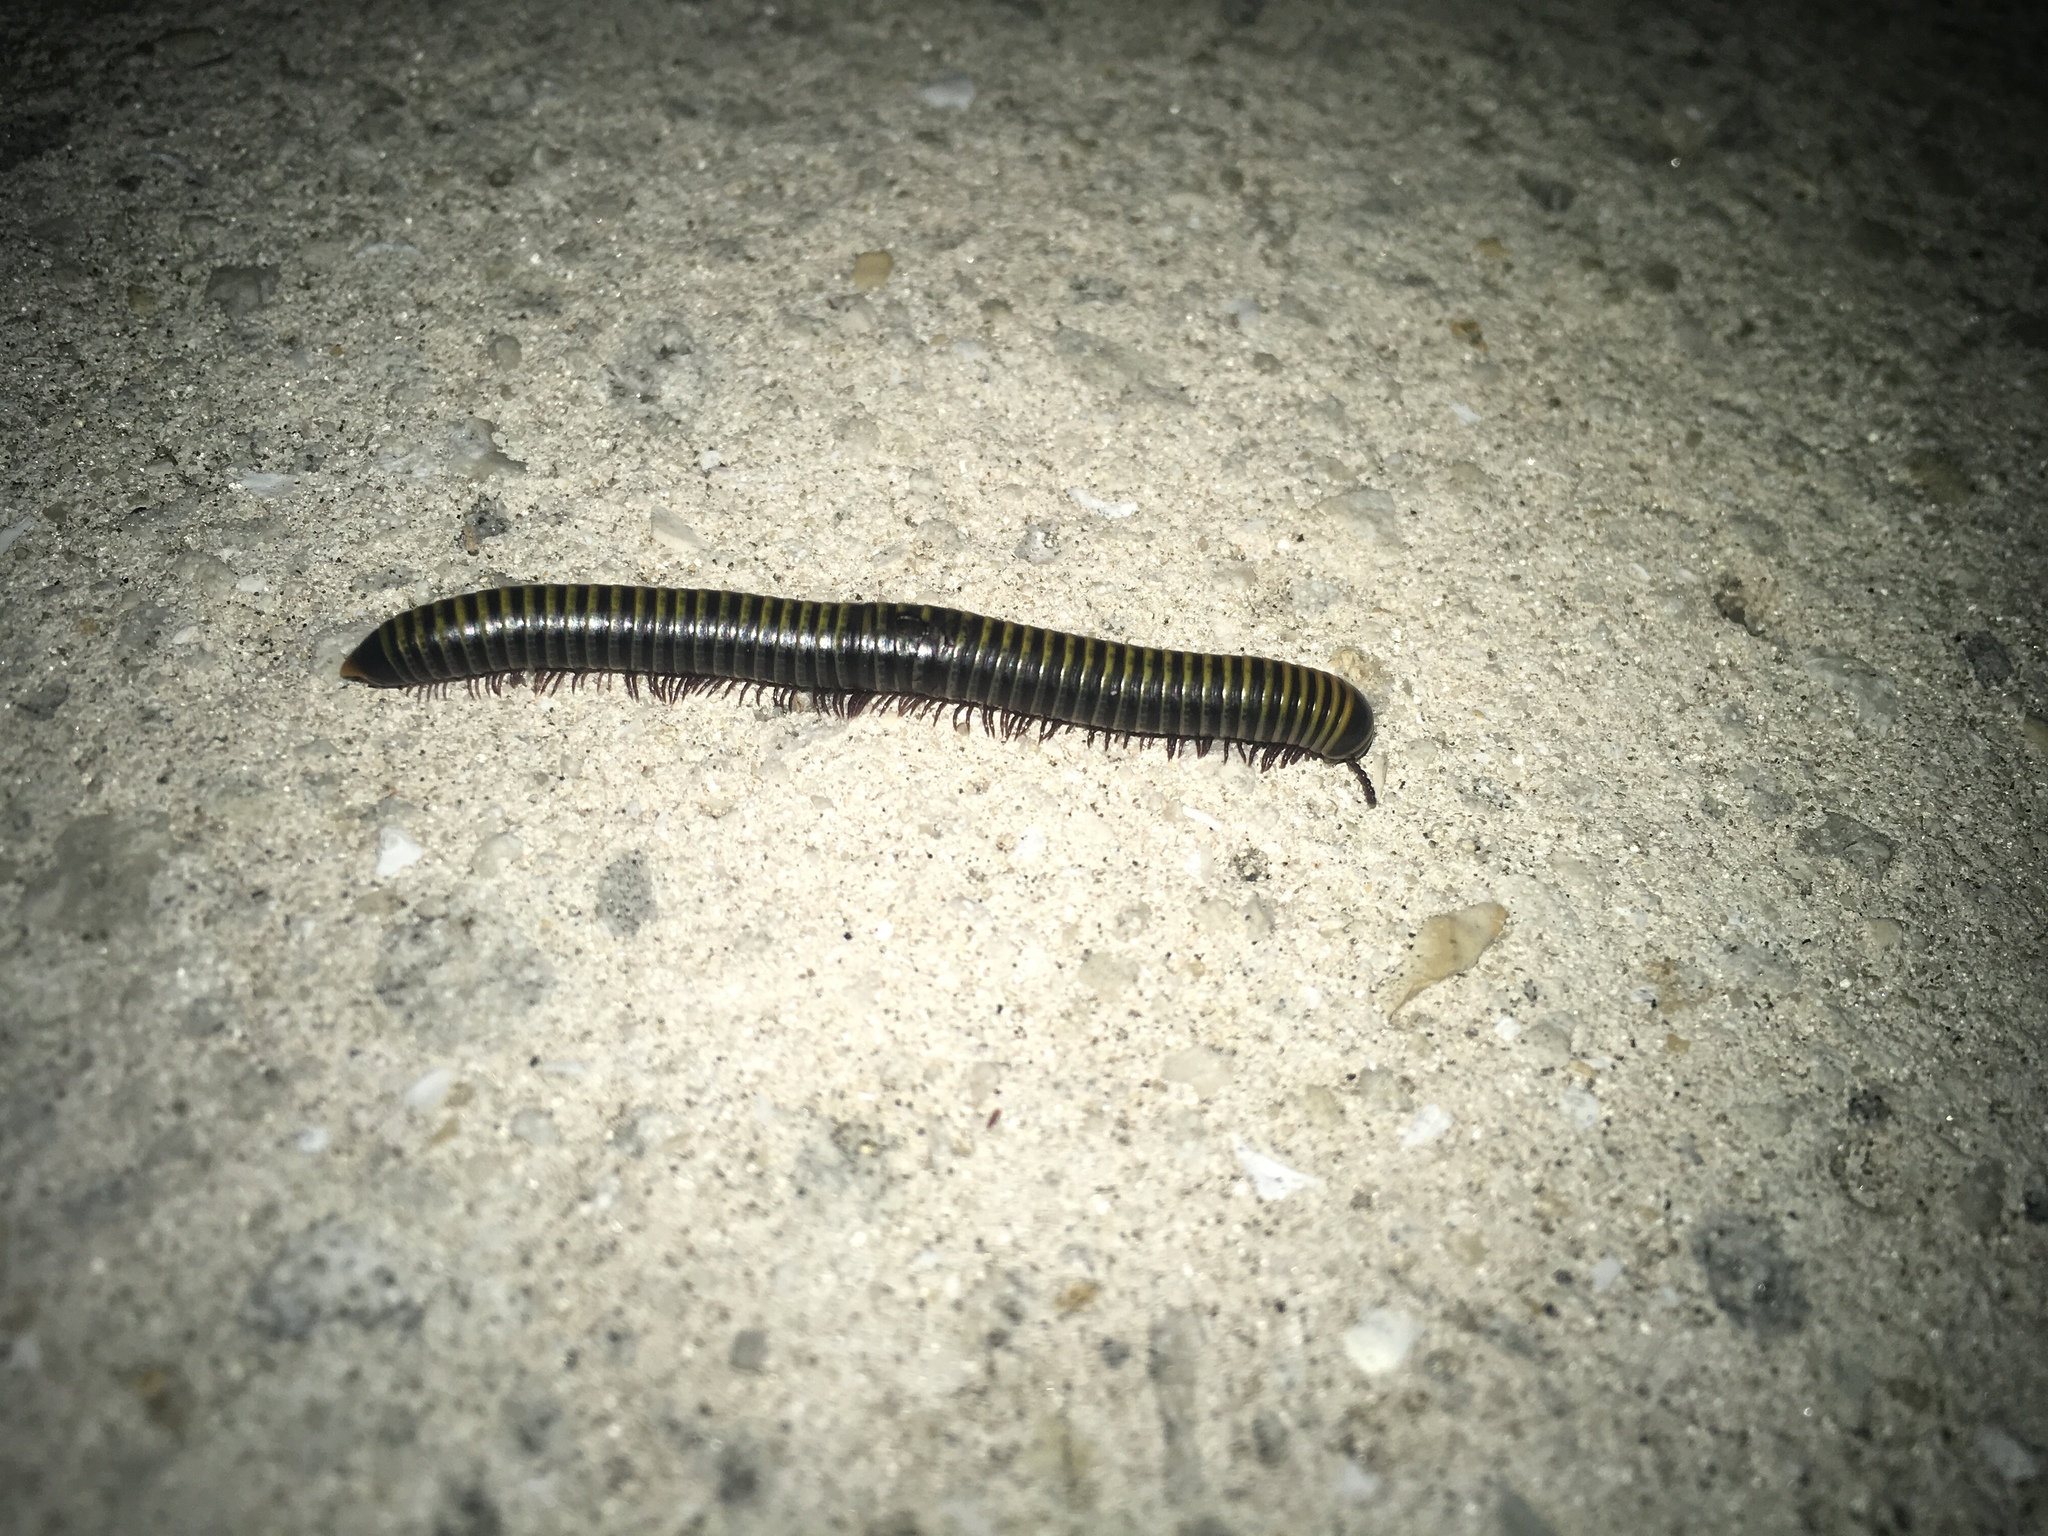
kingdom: Animalia
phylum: Arthropoda
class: Diplopoda
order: Spirobolida
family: Rhinocricidae
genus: Anadenobolus
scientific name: Anadenobolus monilicornis
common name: Caribbean millipede
